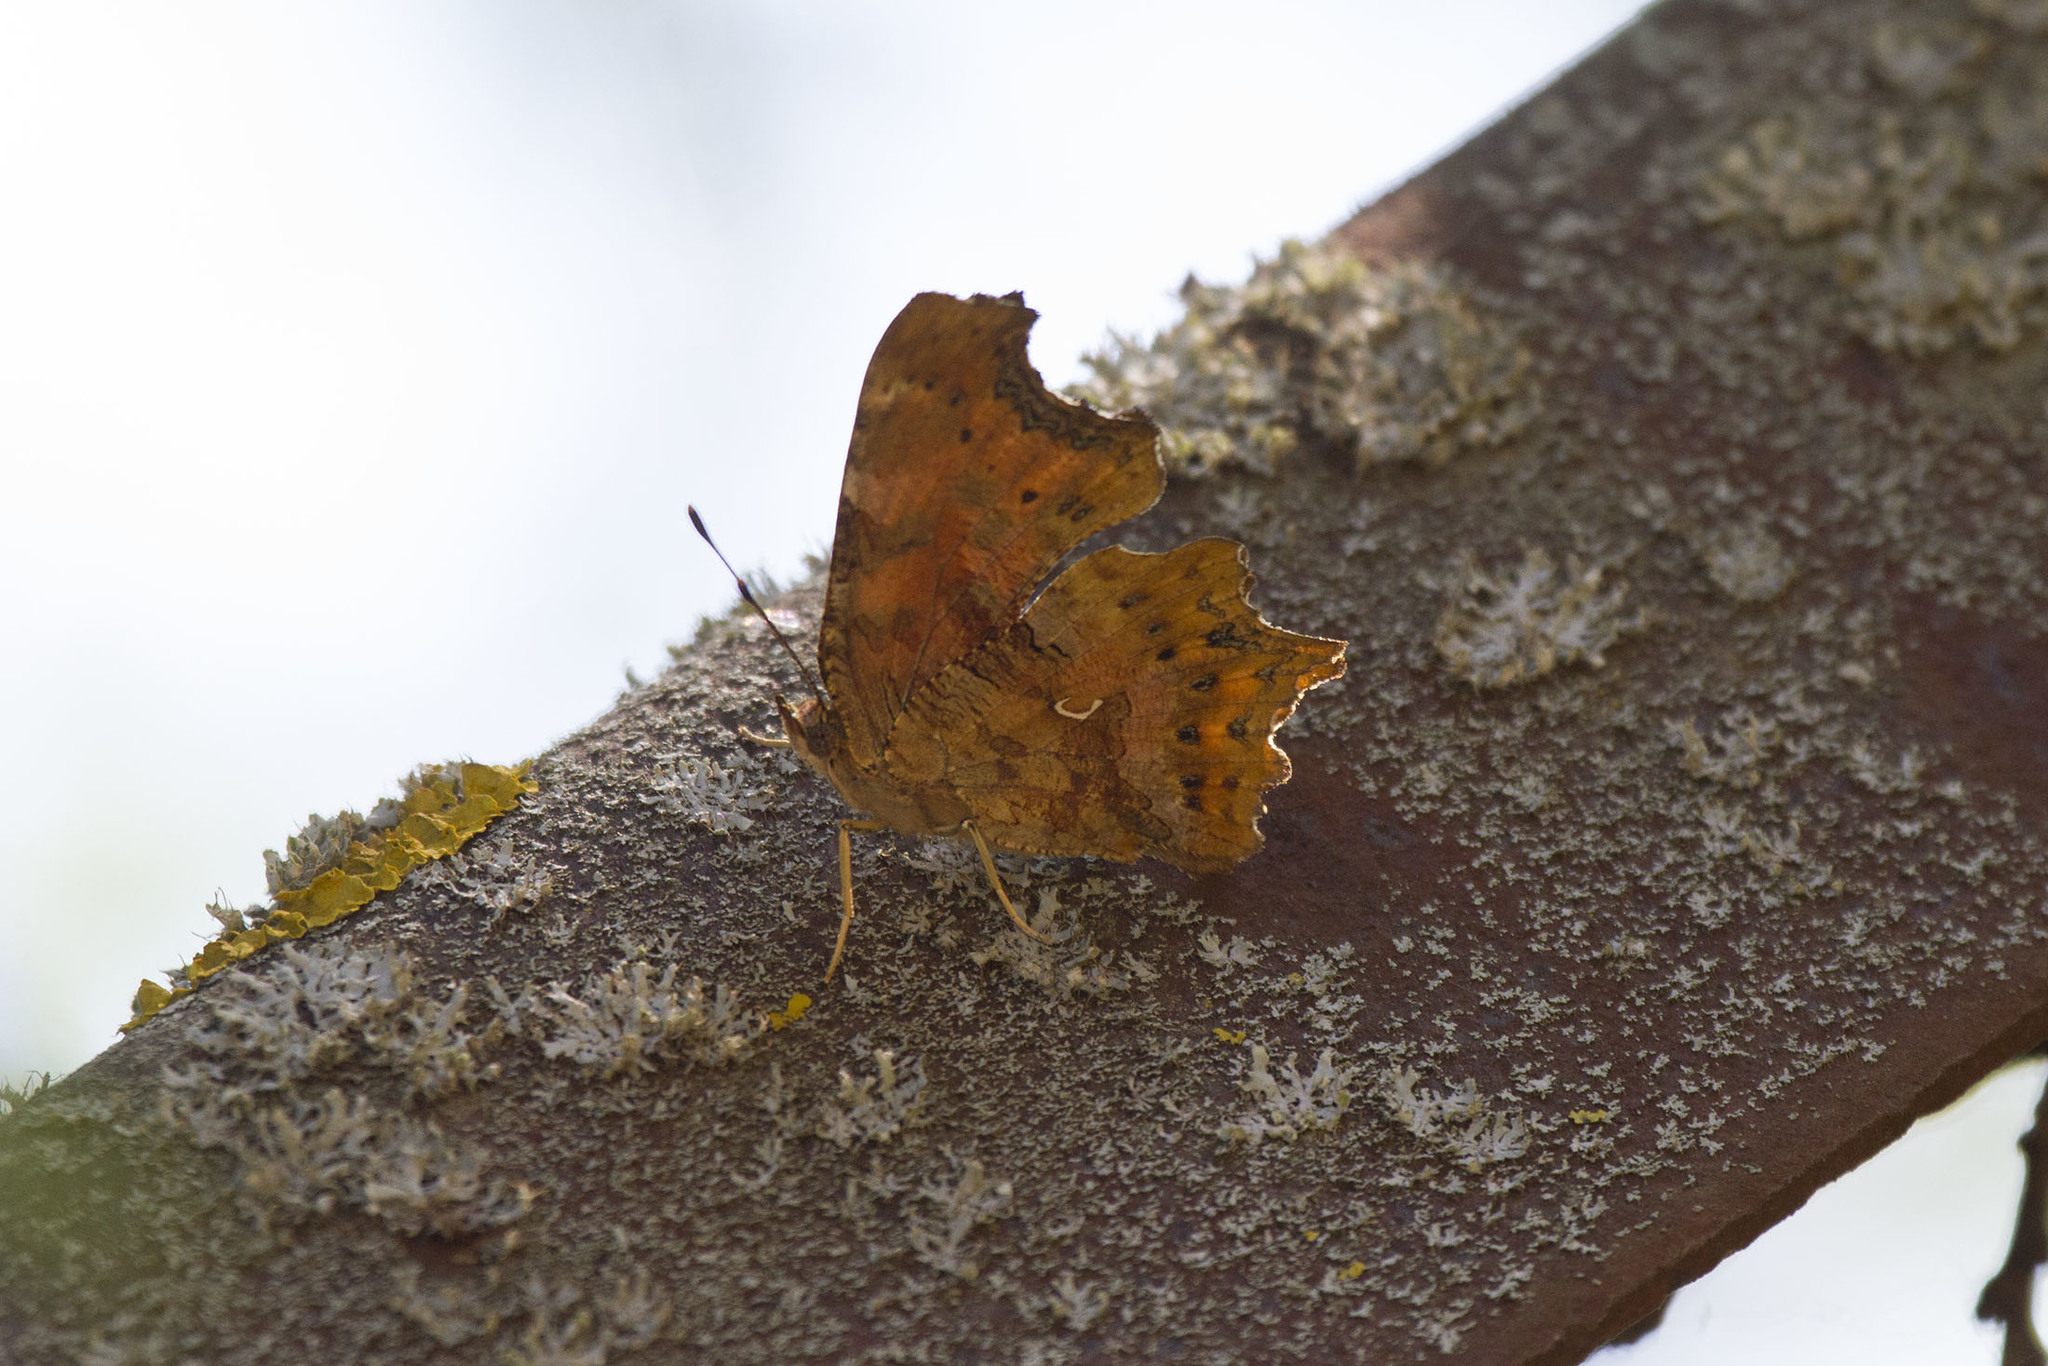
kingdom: Animalia
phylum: Arthropoda
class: Insecta
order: Lepidoptera
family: Nymphalidae
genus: Polygonia
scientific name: Polygonia c-album
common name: Comma
